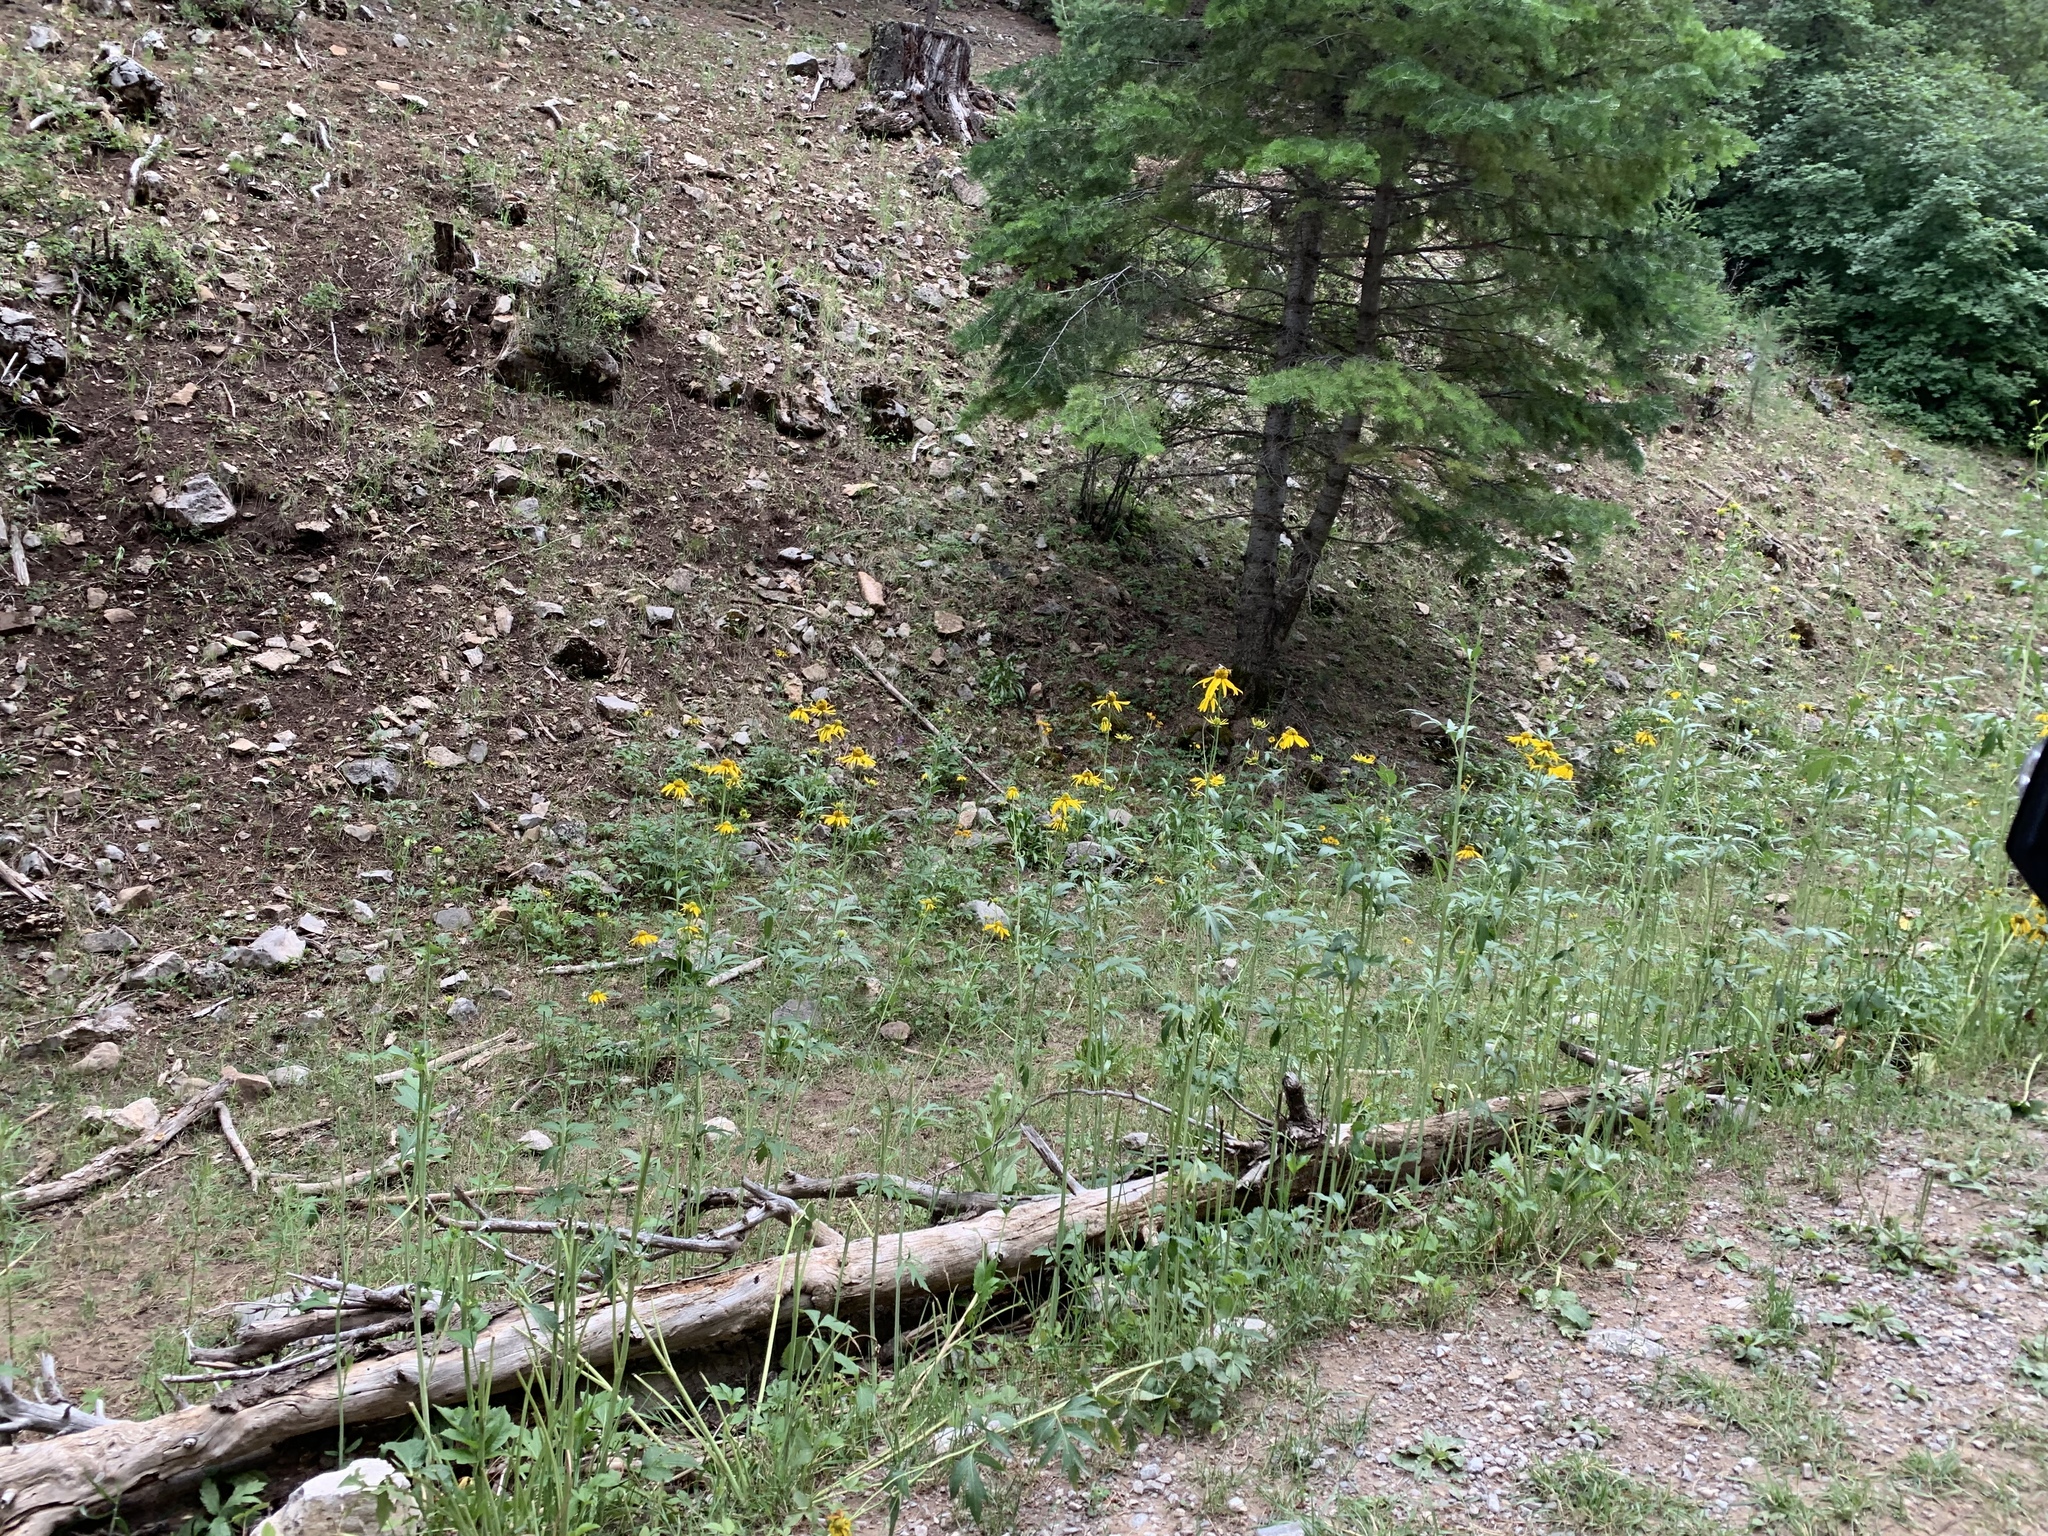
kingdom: Plantae
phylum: Tracheophyta
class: Magnoliopsida
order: Asterales
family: Asteraceae
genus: Rudbeckia
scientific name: Rudbeckia laciniata
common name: Coneflower
